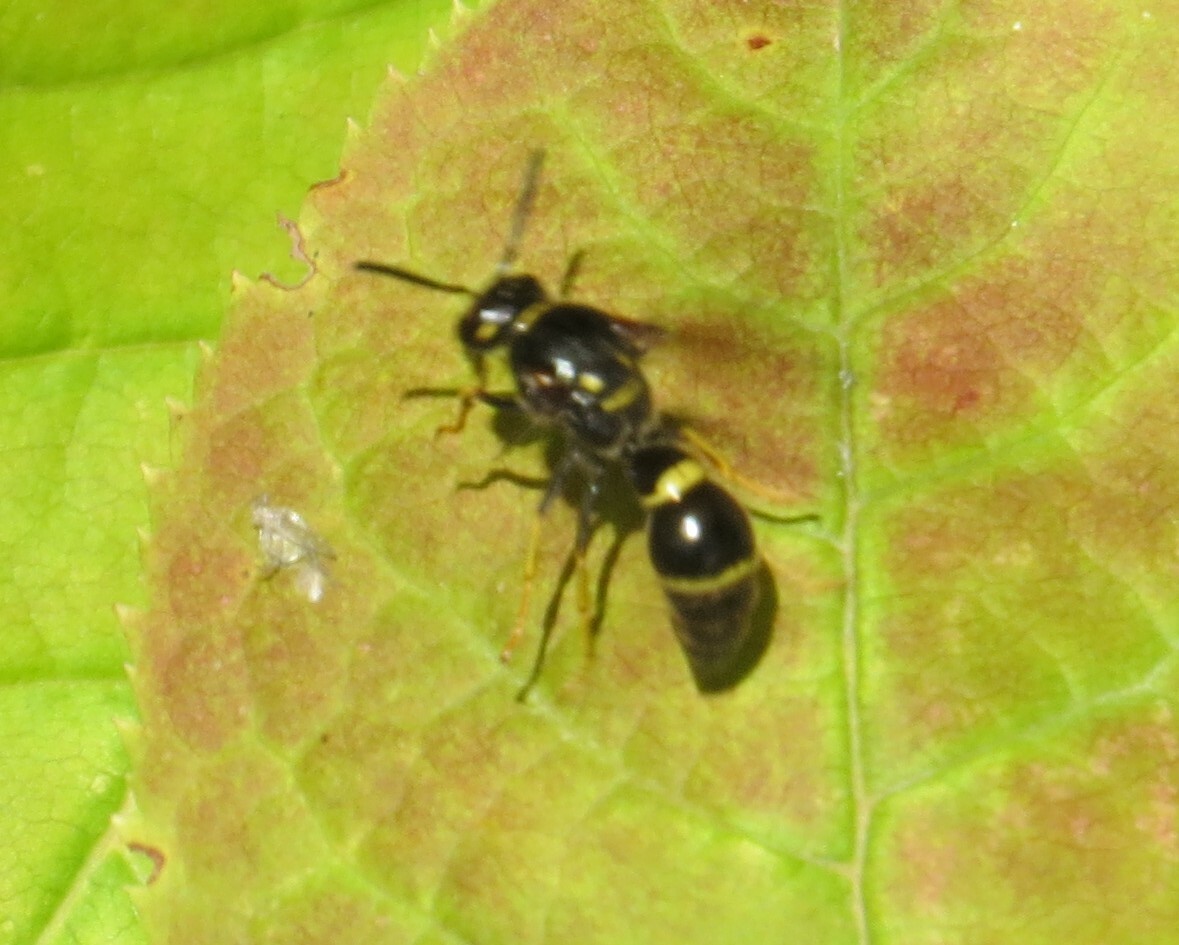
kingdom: Animalia
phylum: Arthropoda
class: Insecta
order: Hymenoptera
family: Eumenidae
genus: Parazumia
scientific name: Parazumia symmorpha
